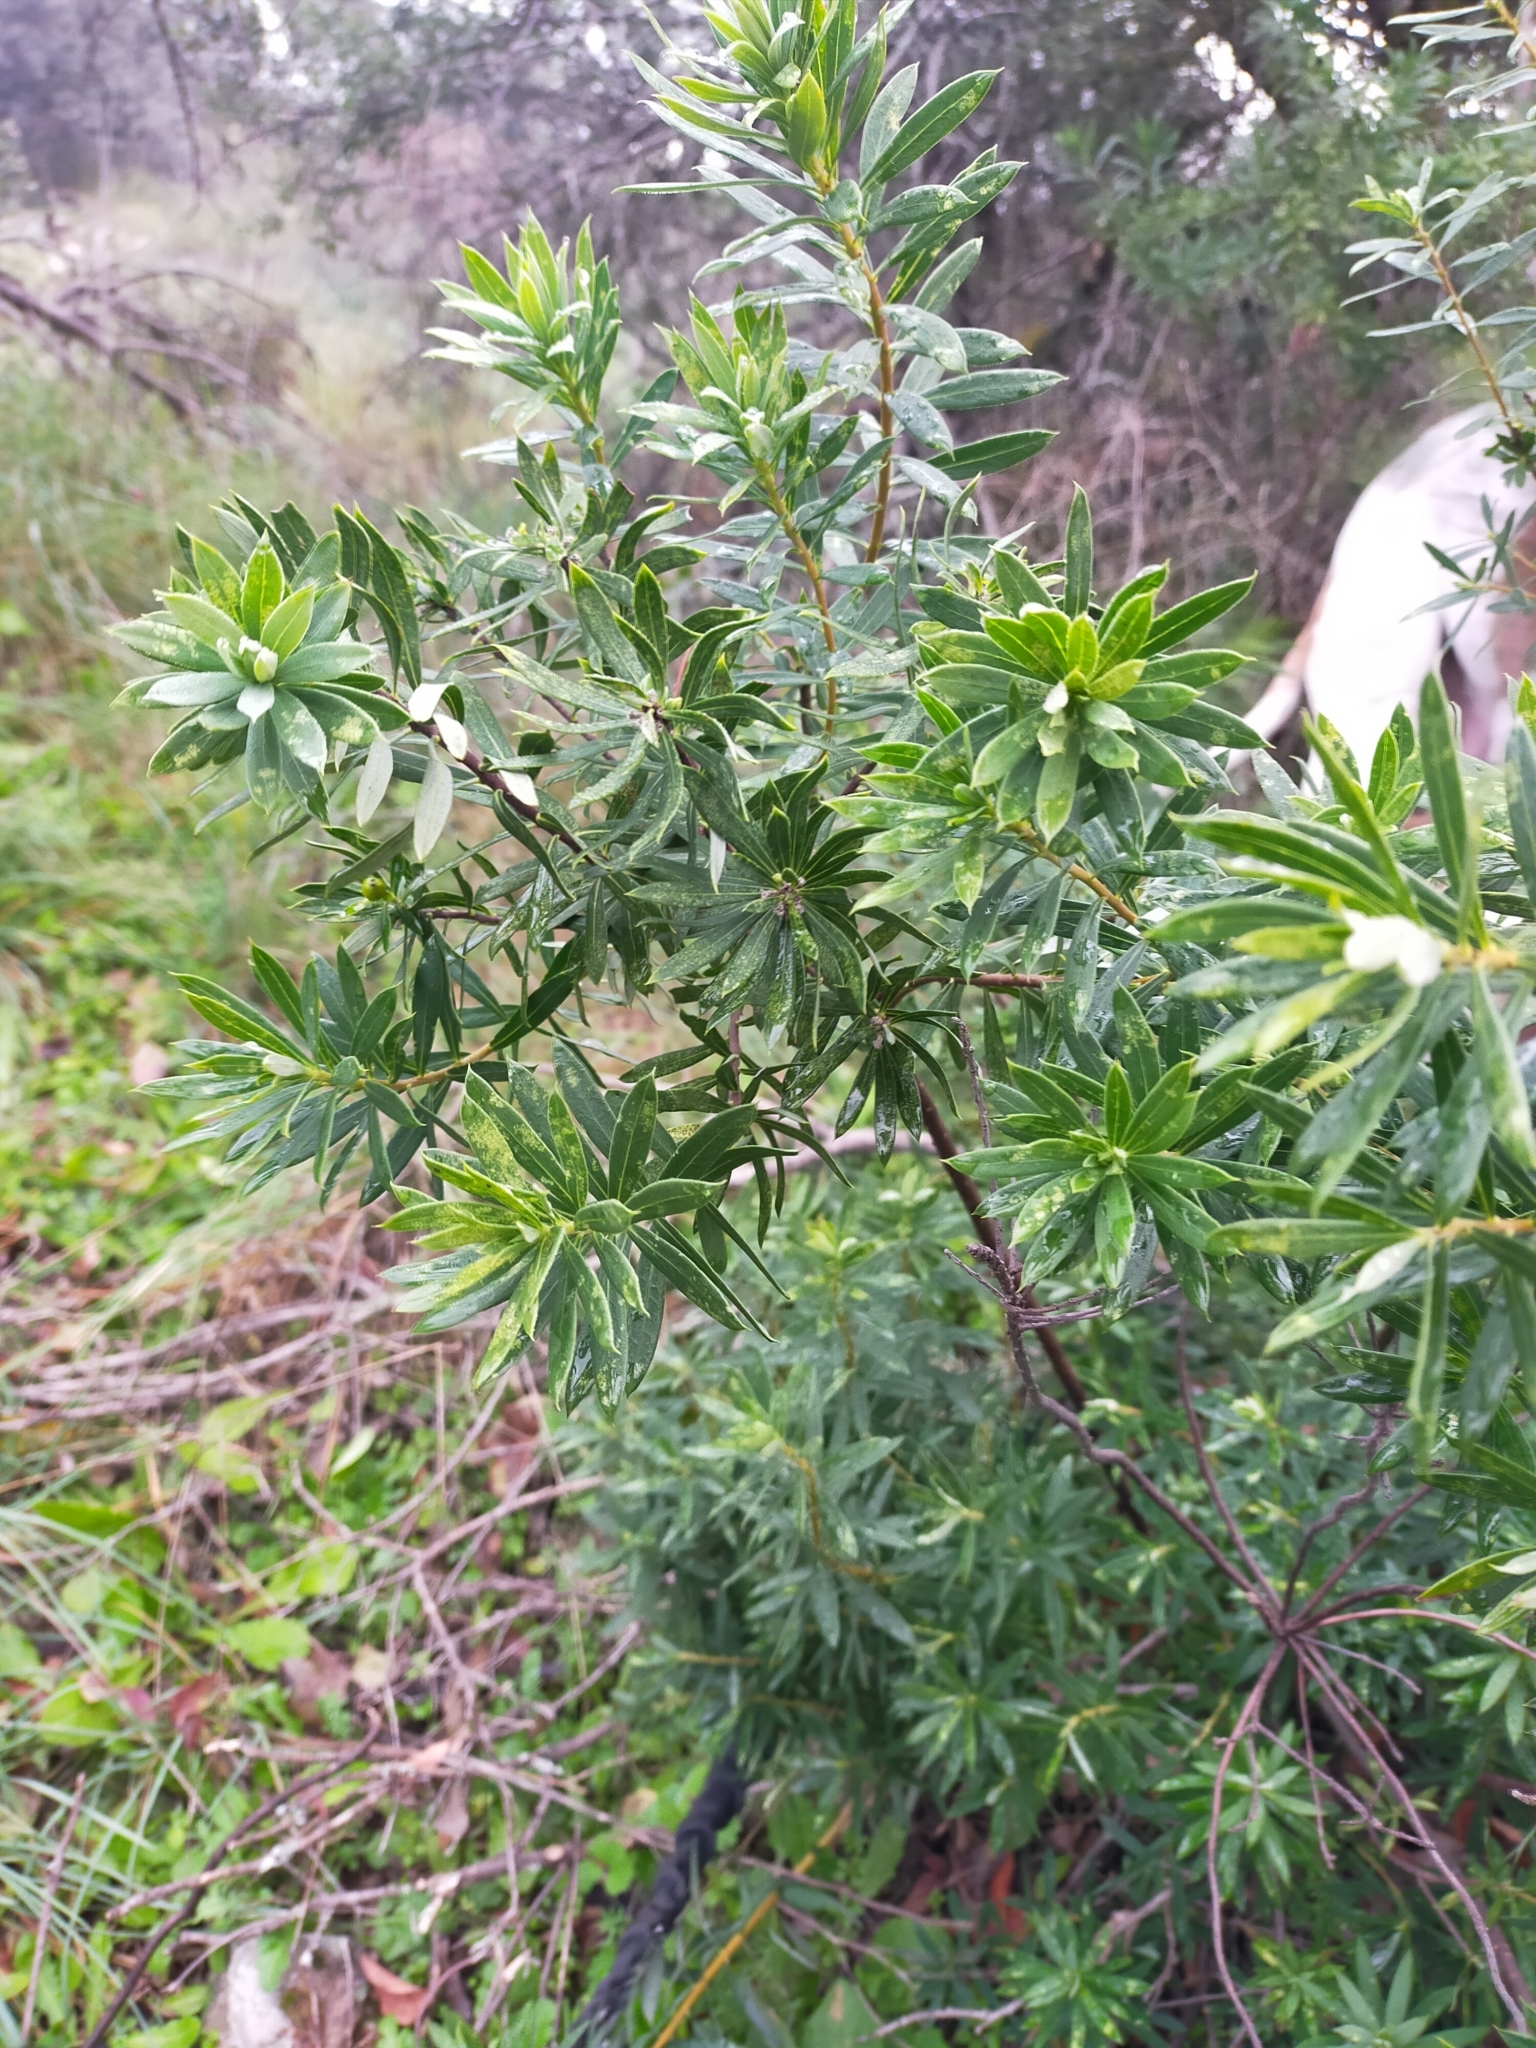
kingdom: Plantae
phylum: Tracheophyta
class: Magnoliopsida
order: Malvales
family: Thymelaeaceae
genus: Daphne
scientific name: Daphne gnidium
